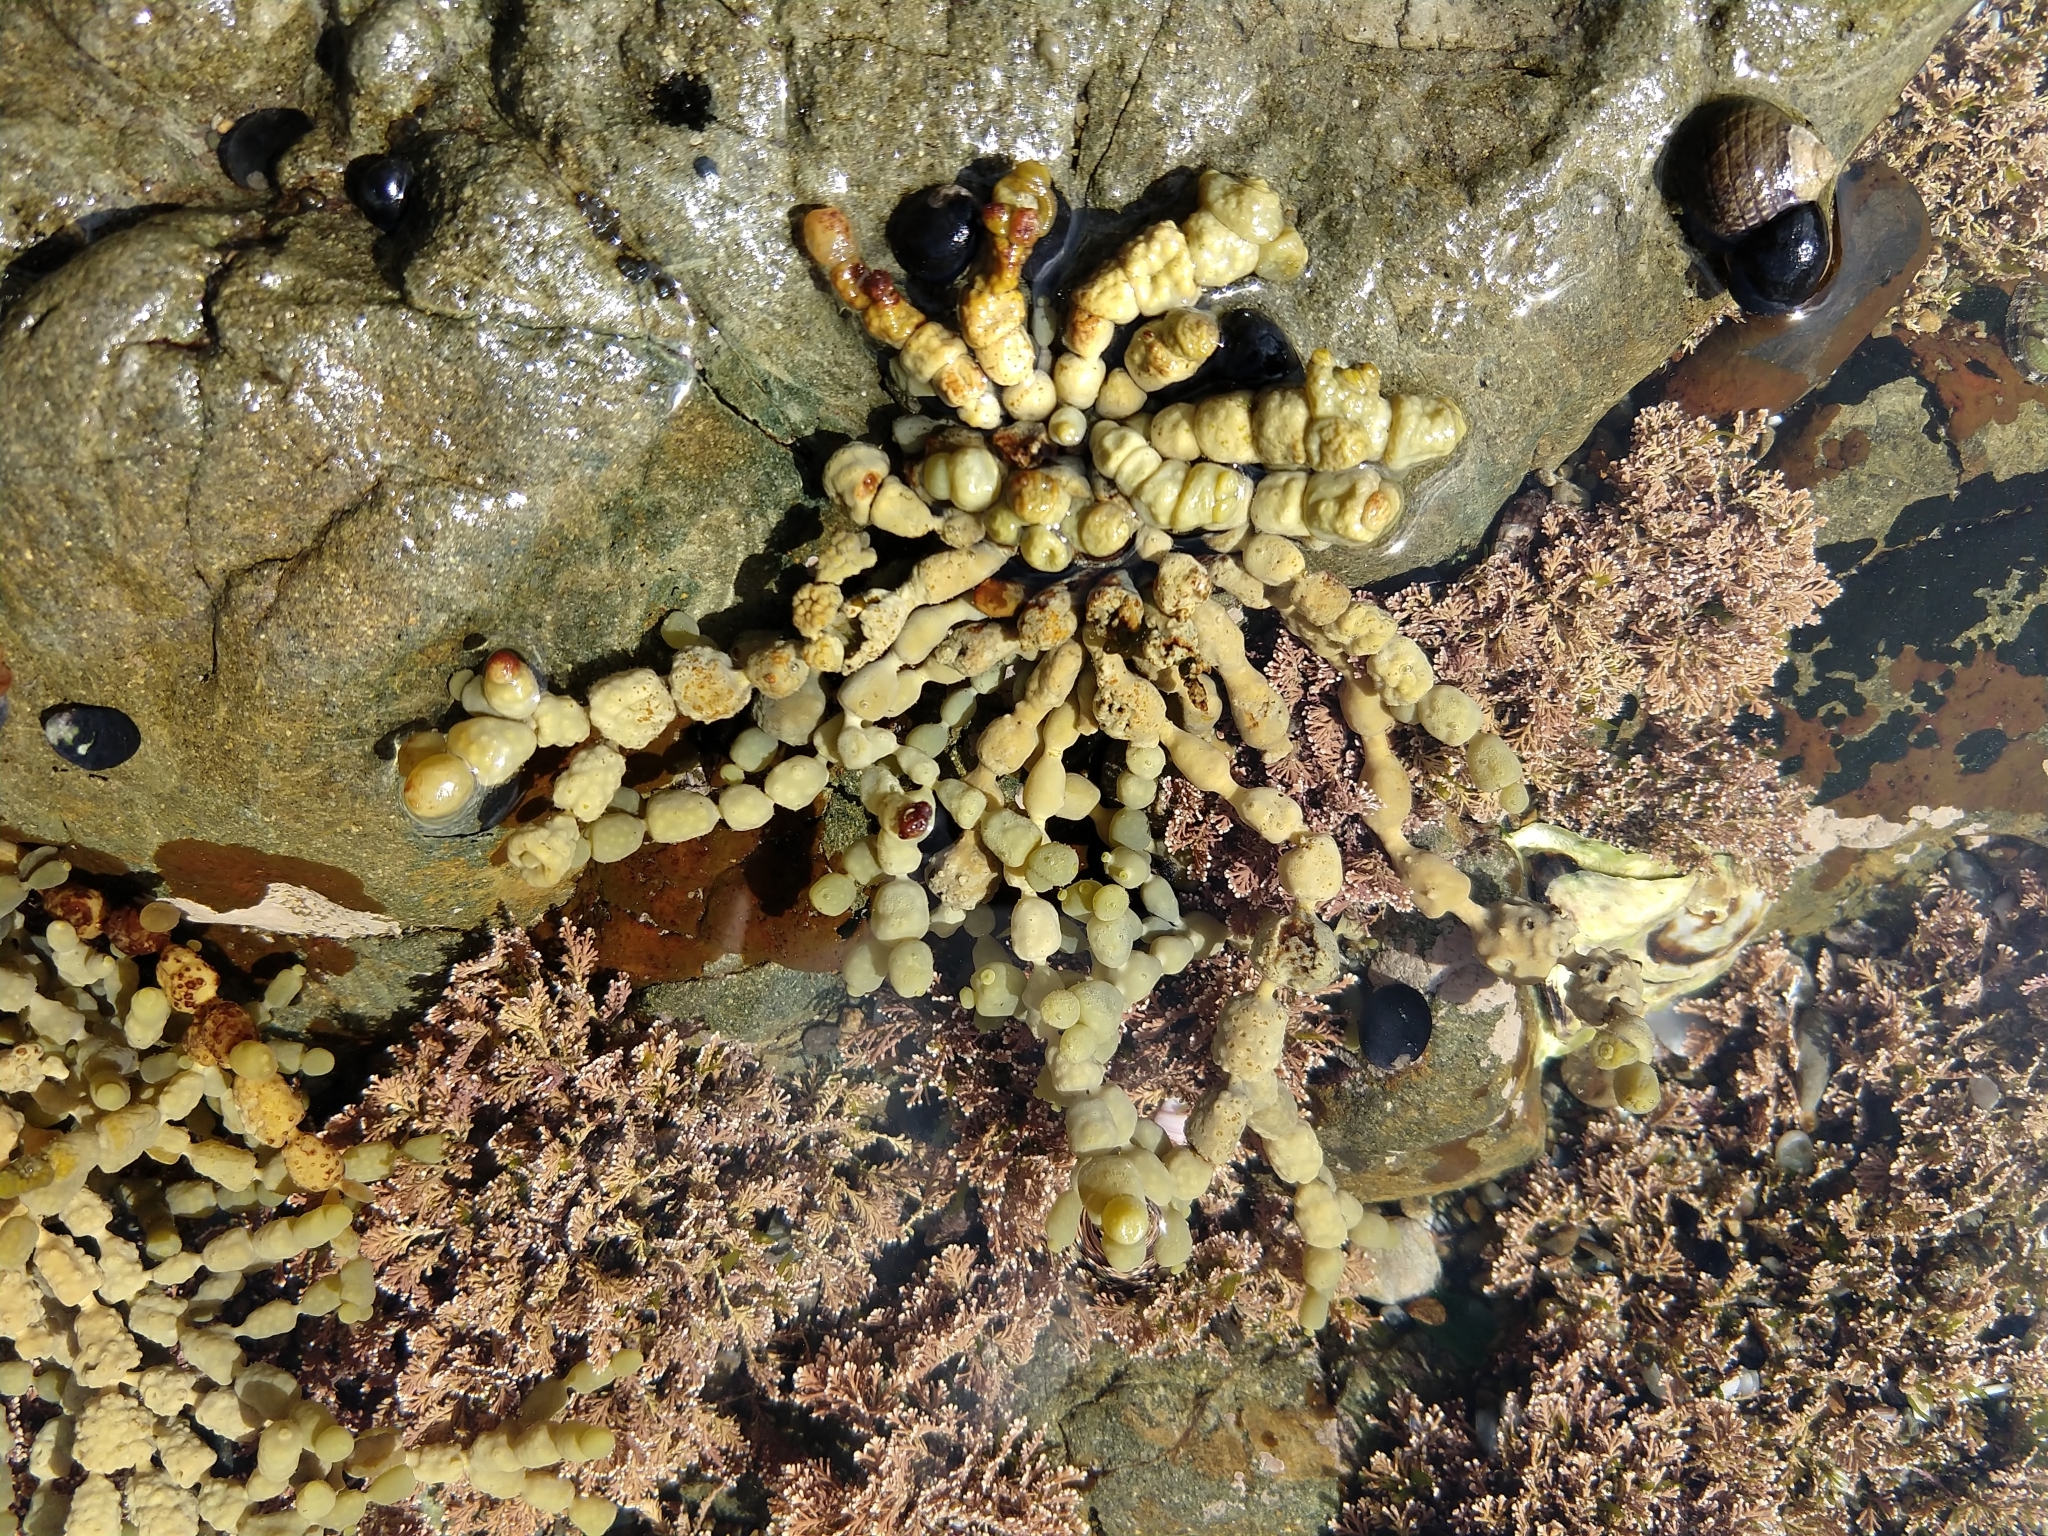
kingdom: Chromista
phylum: Ochrophyta
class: Phaeophyceae
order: Fucales
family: Hormosiraceae
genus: Hormosira
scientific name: Hormosira banksii
